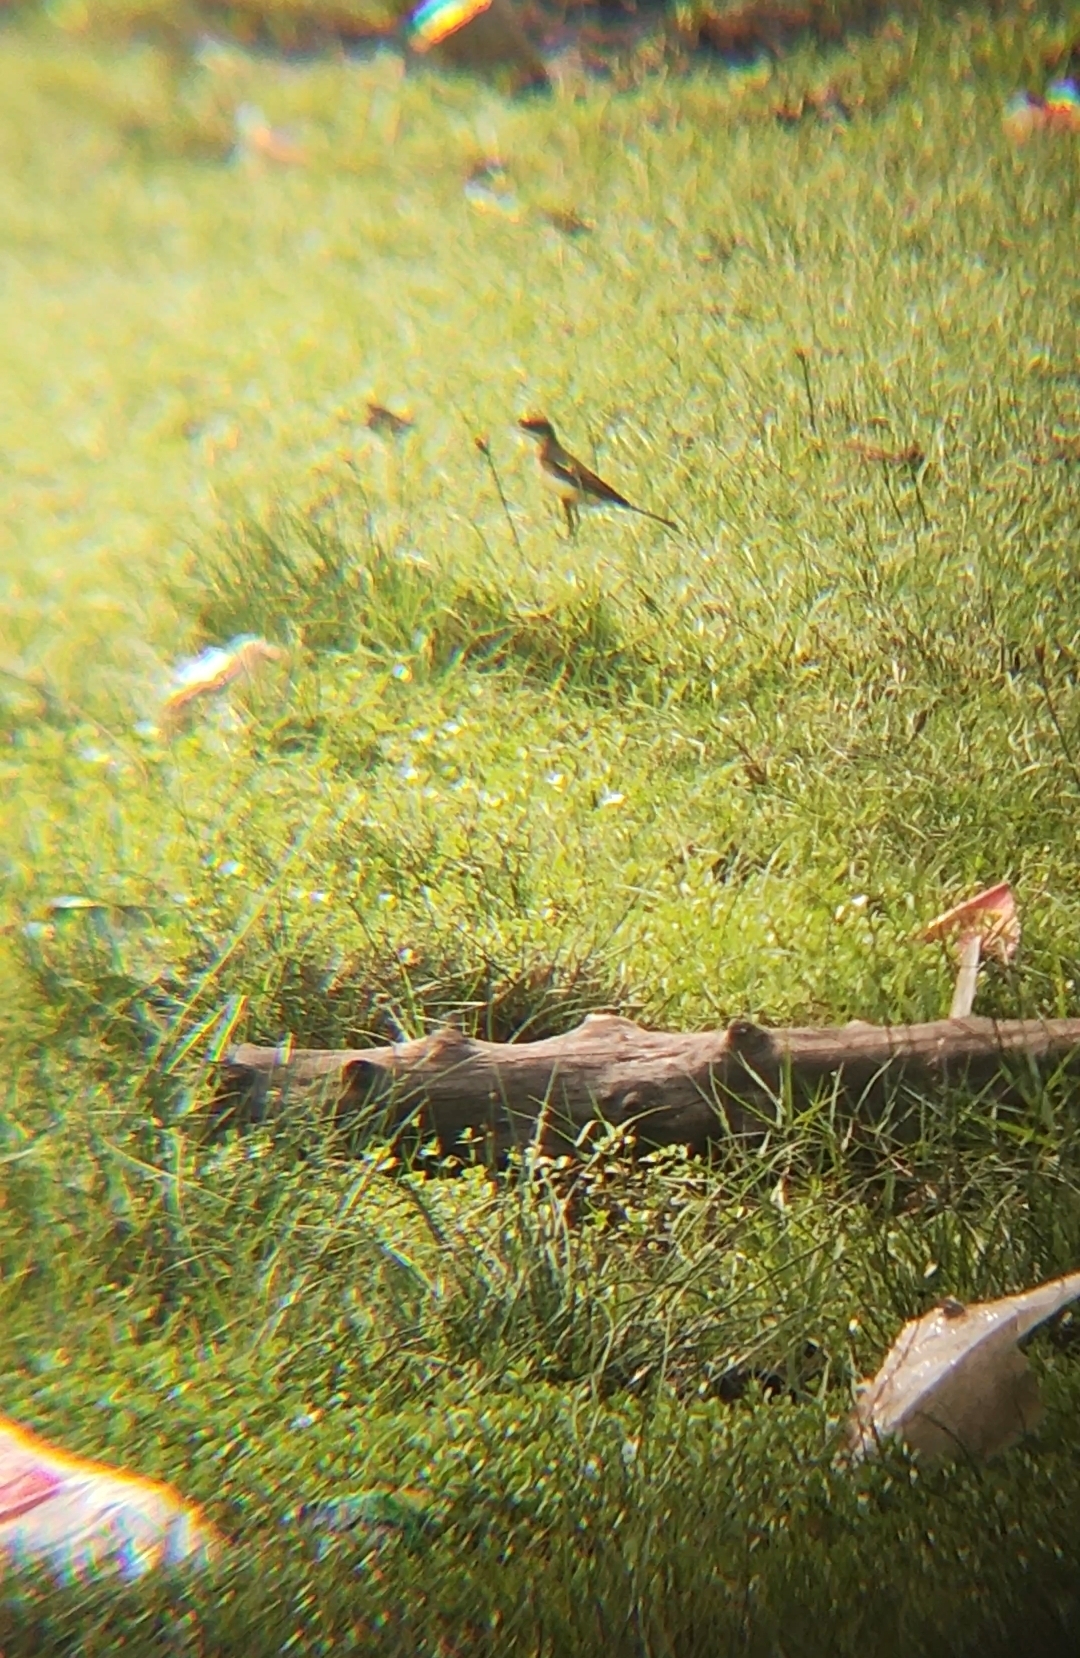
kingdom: Animalia
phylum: Chordata
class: Aves
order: Passeriformes
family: Motacillidae
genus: Motacilla
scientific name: Motacilla flava
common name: Western yellow wagtail
